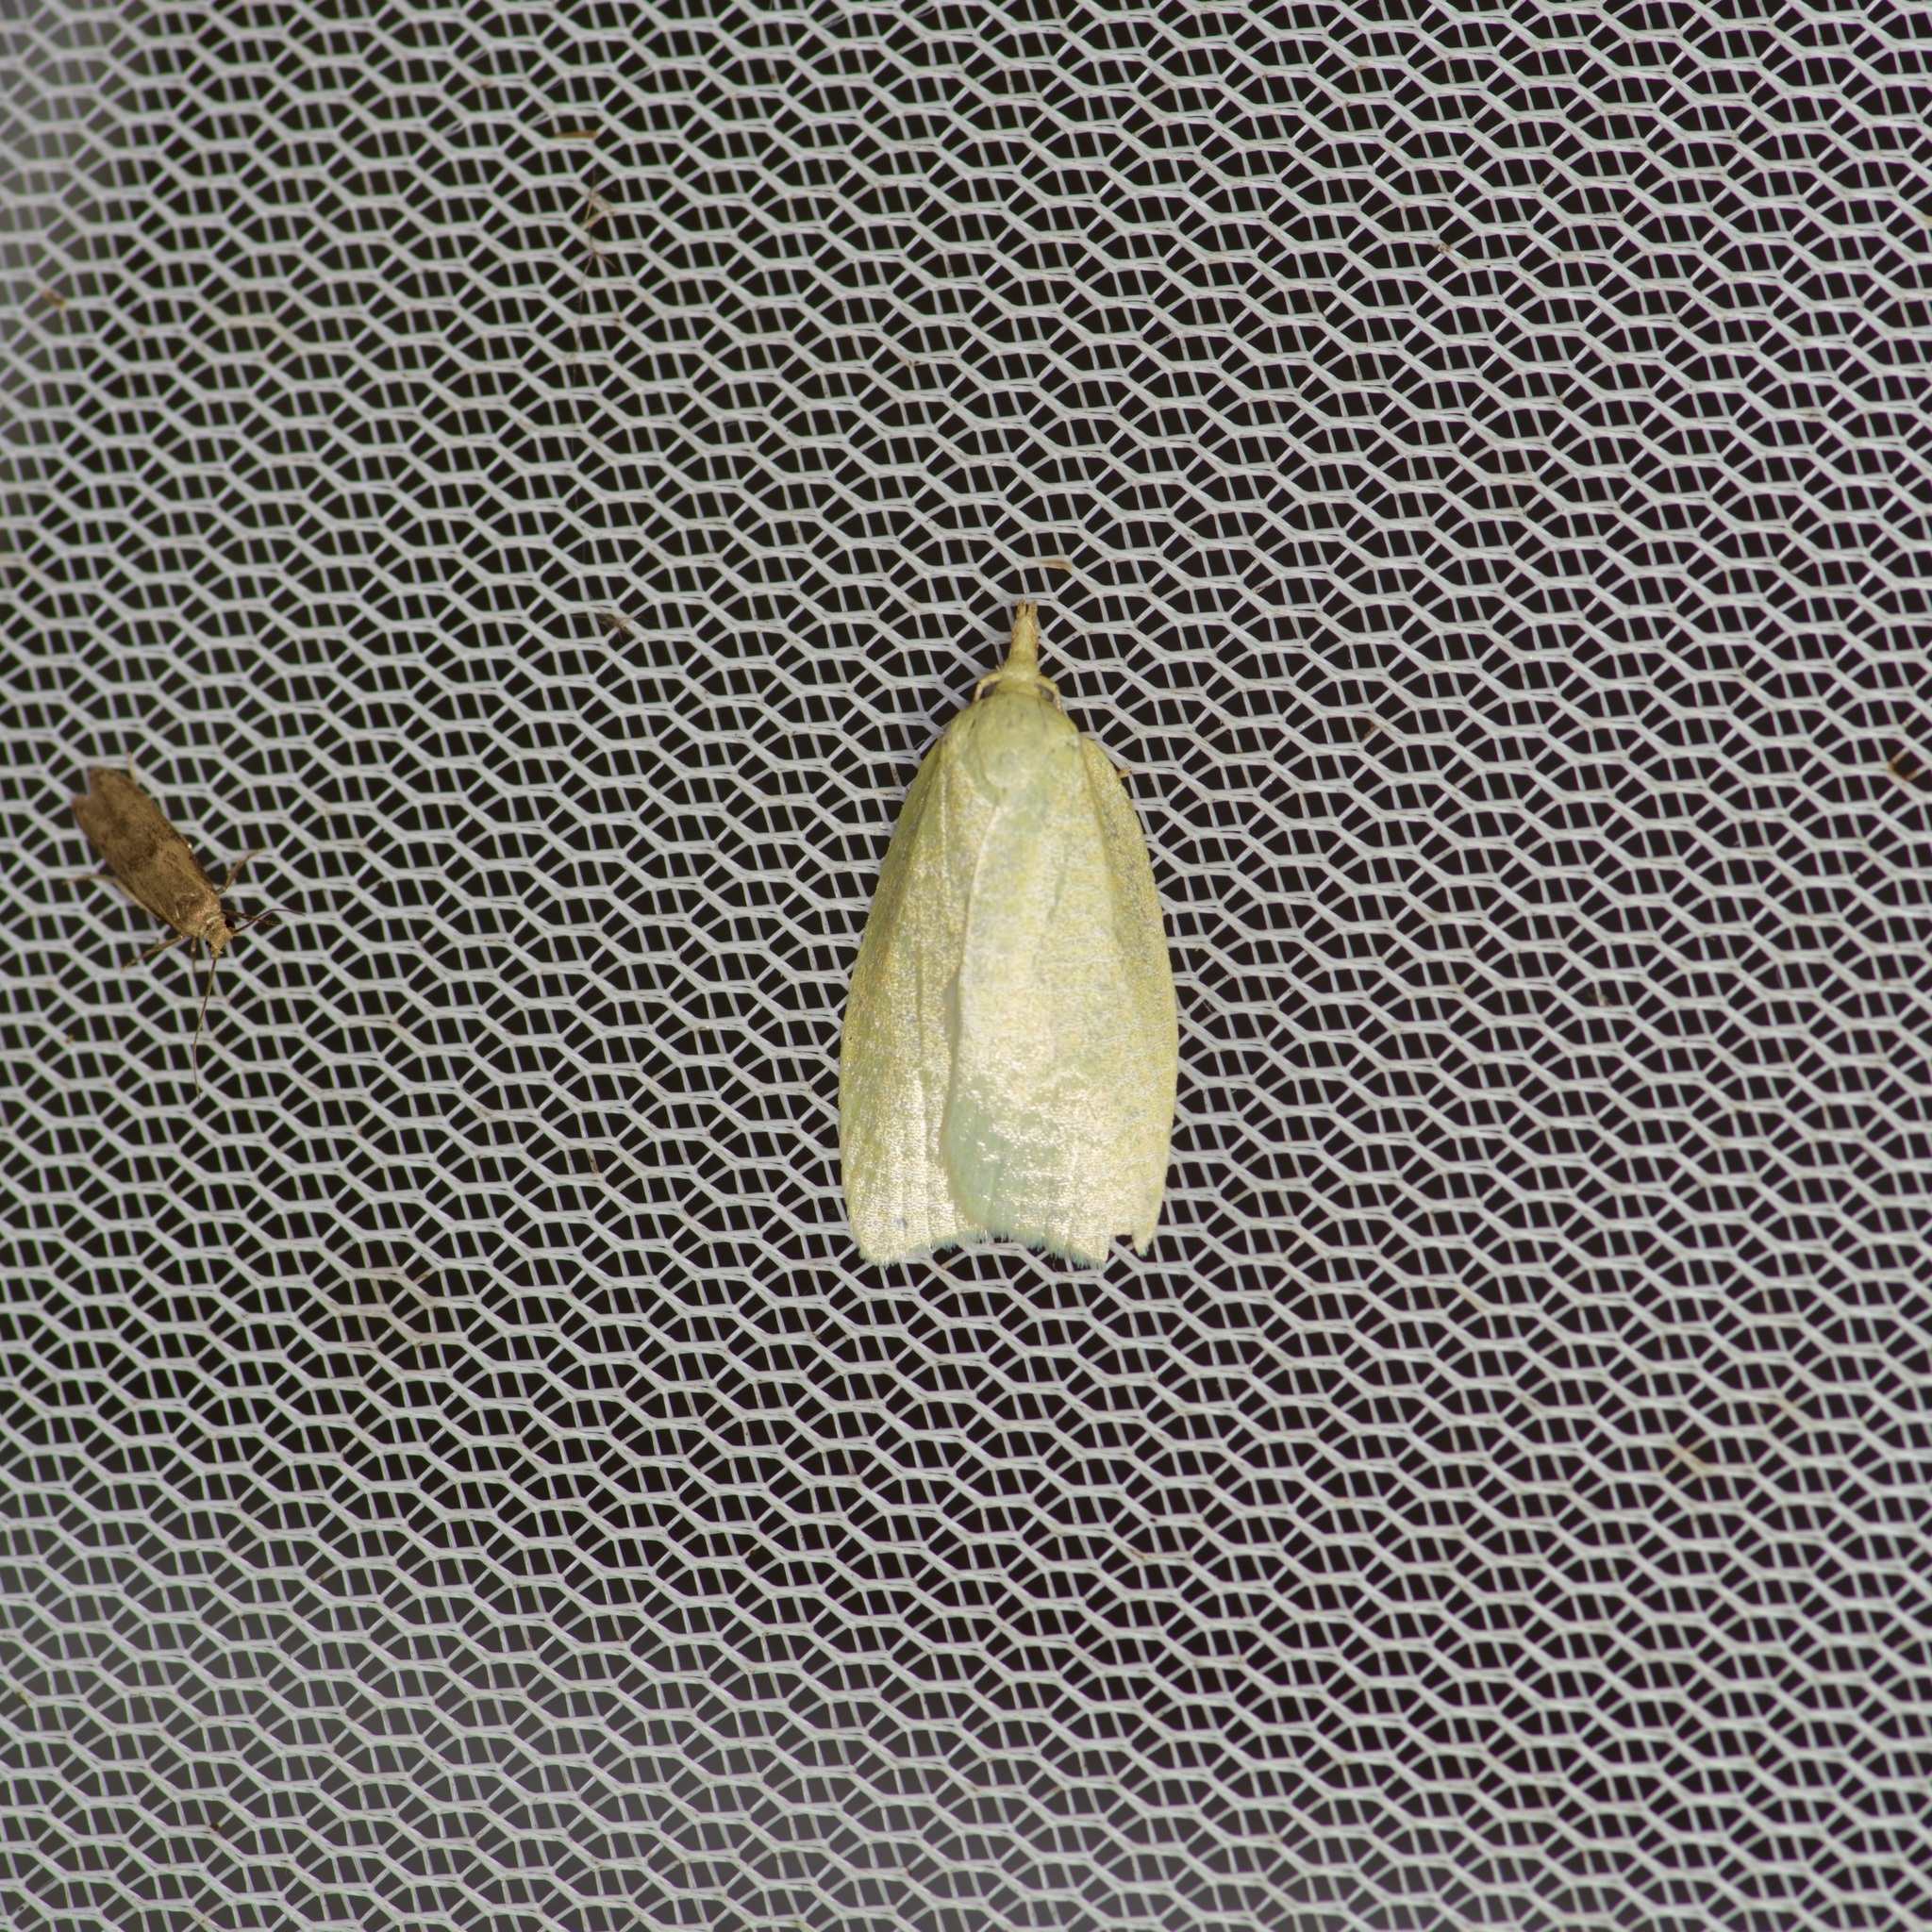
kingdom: Animalia
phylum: Arthropoda
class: Insecta
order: Lepidoptera
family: Tortricidae
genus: Cenopis
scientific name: Cenopis pettitana
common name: Maple-basswood leafroller moth
